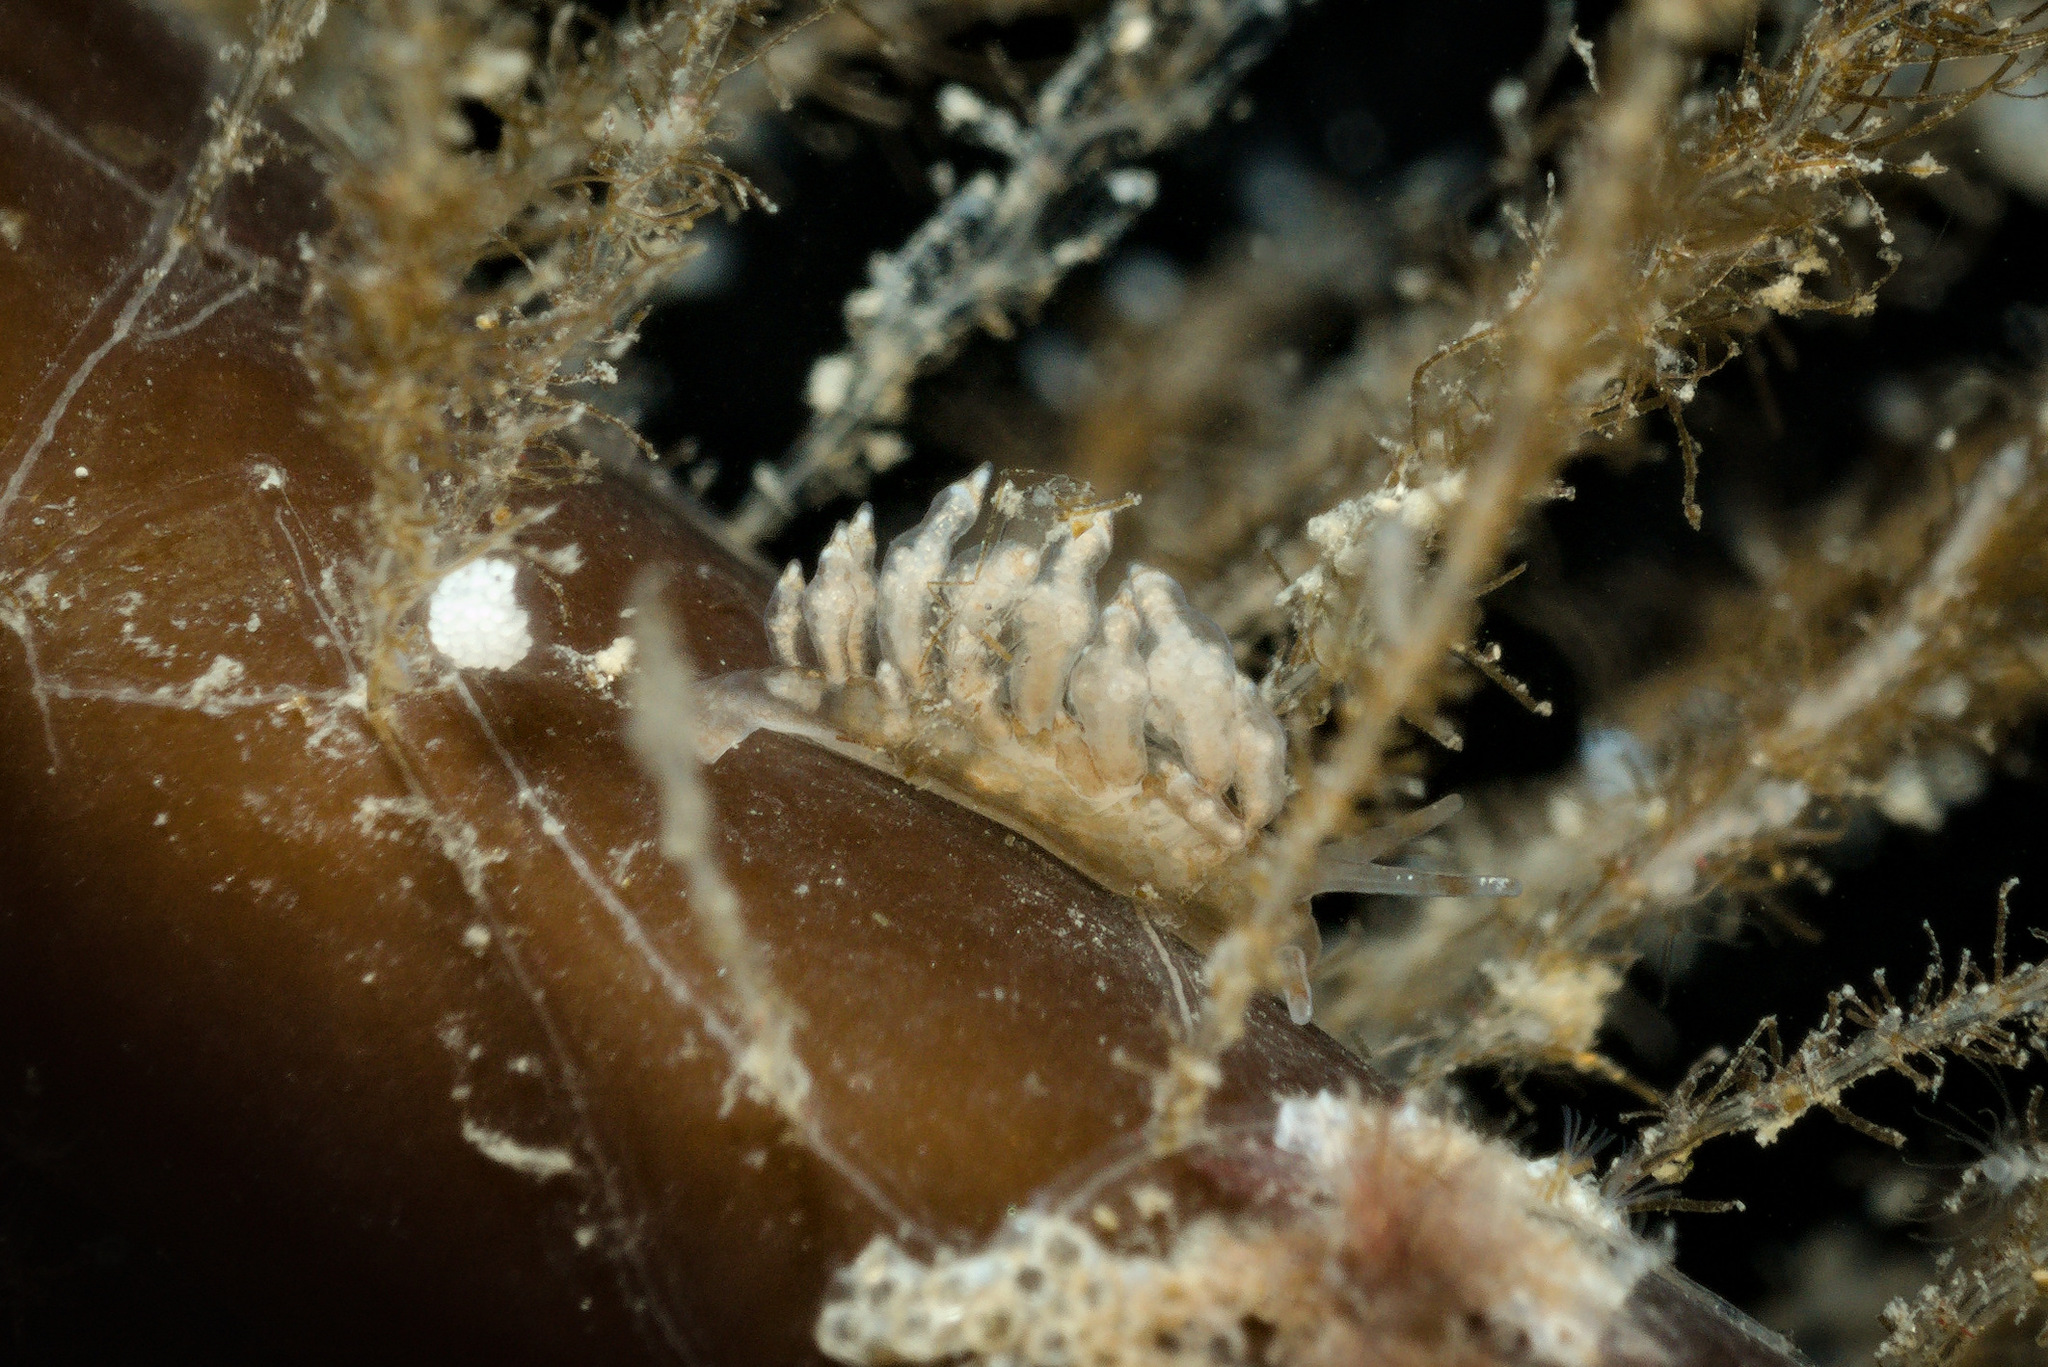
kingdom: Animalia
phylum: Mollusca
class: Gastropoda
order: Nudibranchia
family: Eubranchidae
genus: Eubranchus
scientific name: Eubranchus exiguus
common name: Balloon aeolis
